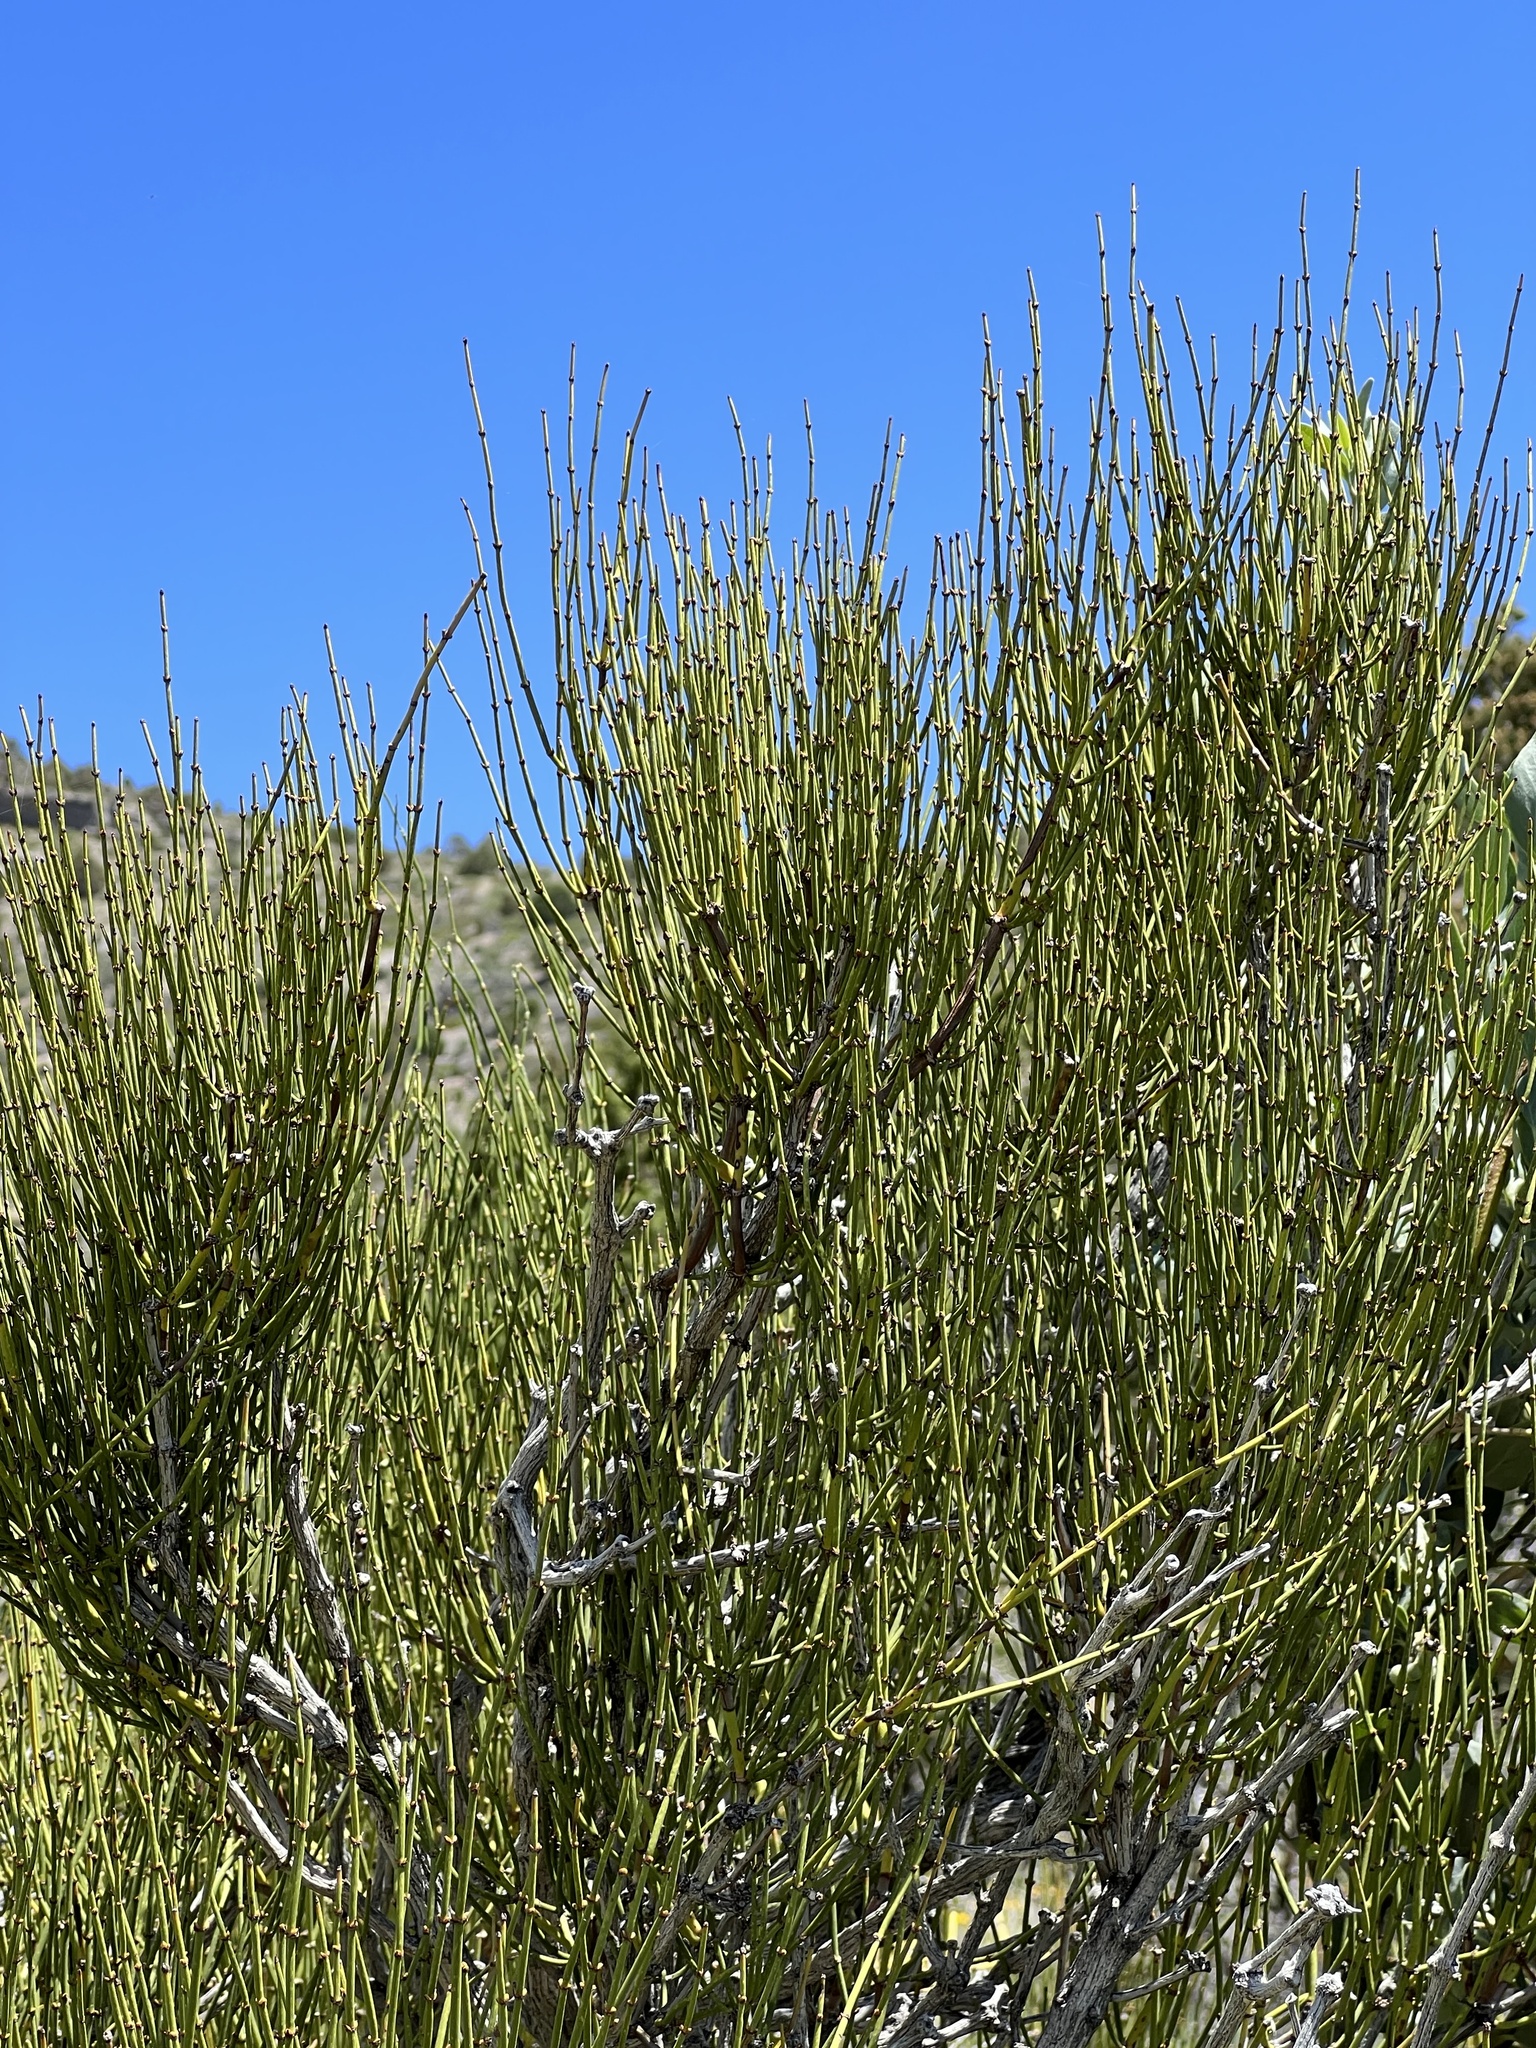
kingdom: Plantae
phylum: Tracheophyta
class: Gnetopsida
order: Ephedrales
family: Ephedraceae
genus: Ephedra
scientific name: Ephedra viridis
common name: Green ephedra
